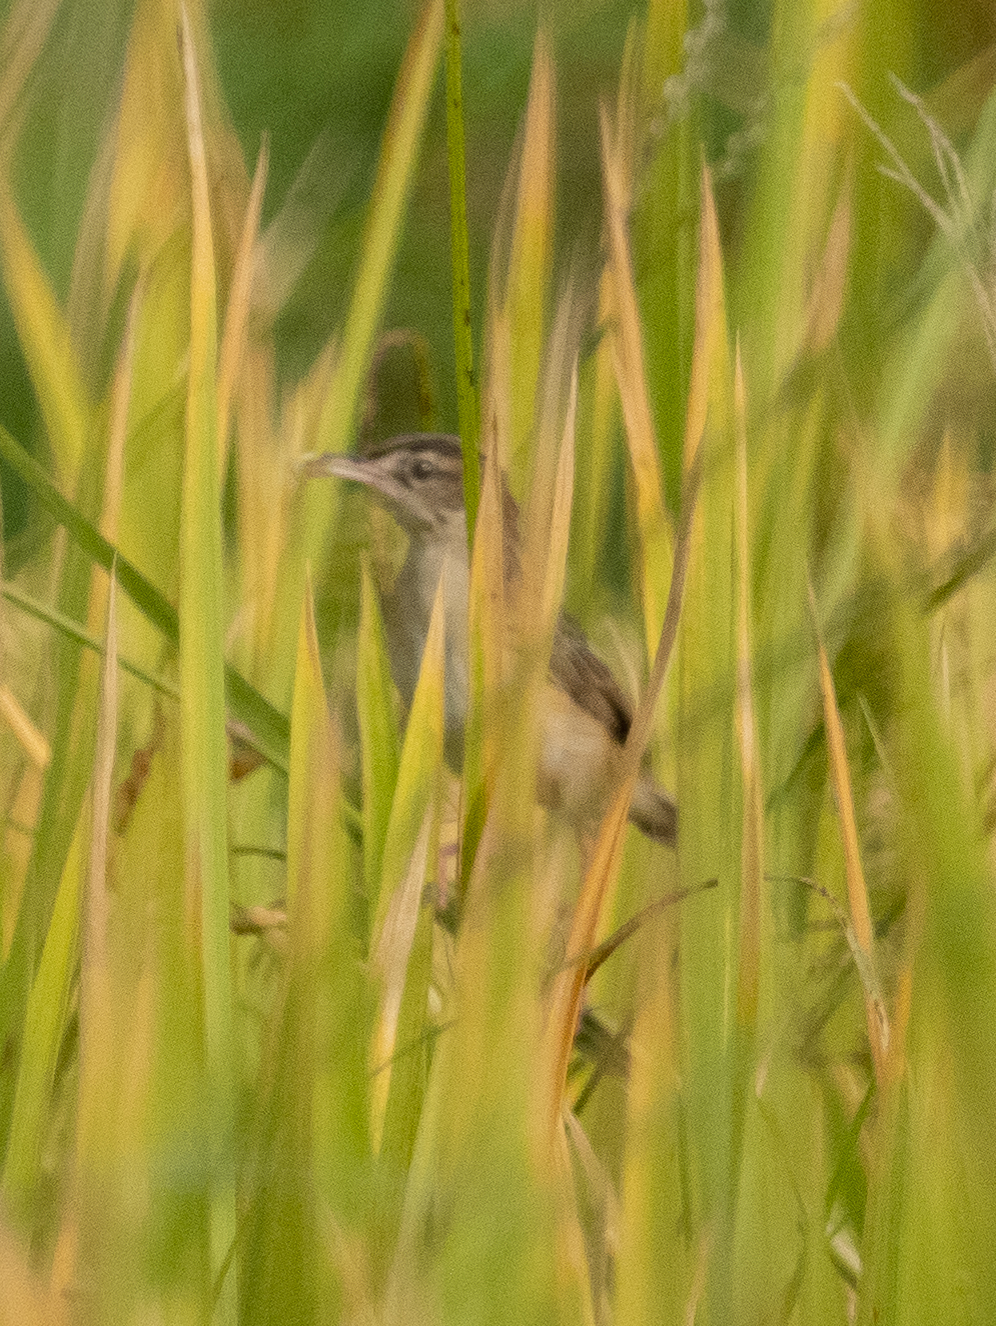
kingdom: Animalia
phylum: Chordata
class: Aves
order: Passeriformes
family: Cisticolidae
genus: Prinia
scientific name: Prinia inornata
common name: Plain prinia
